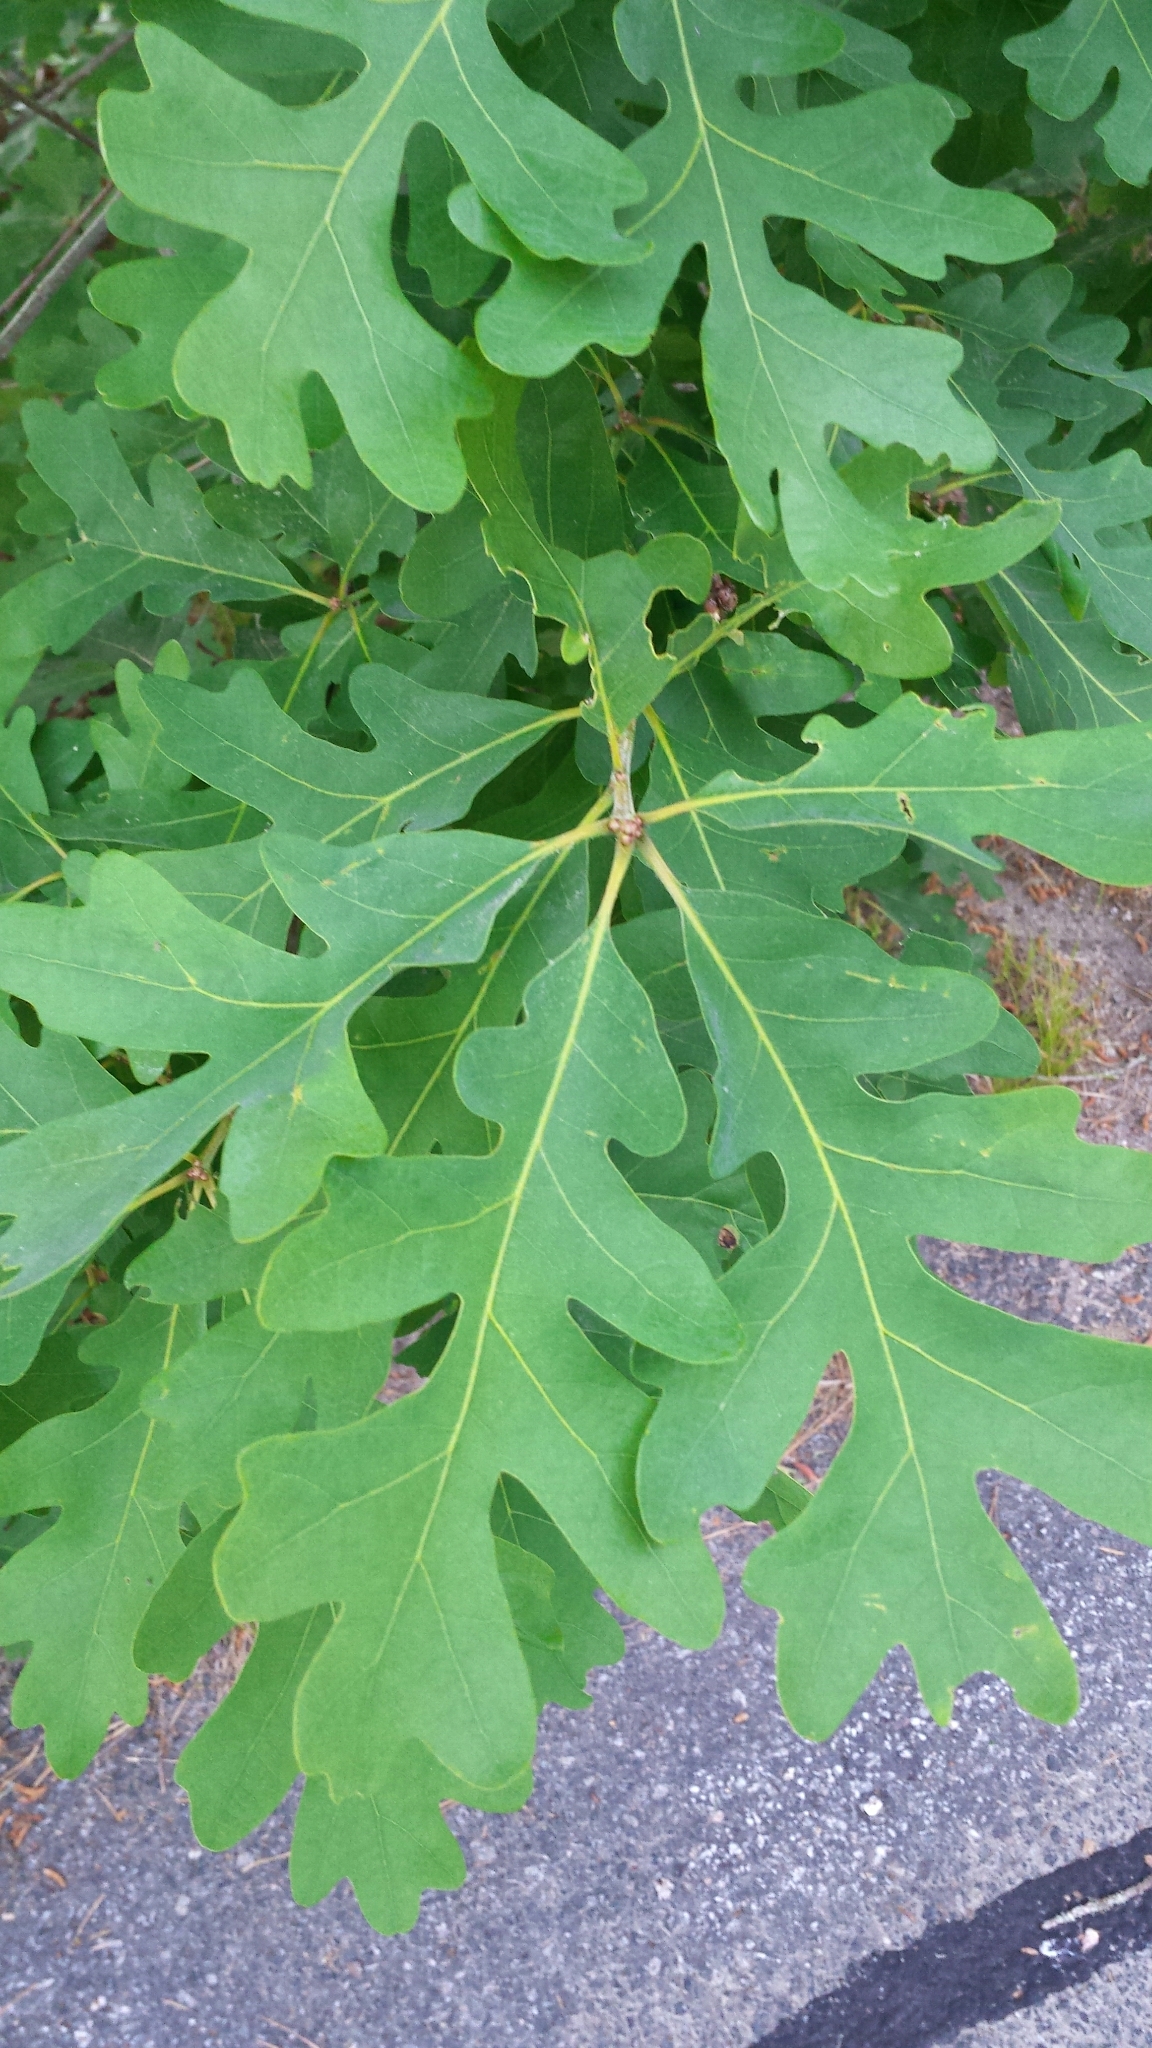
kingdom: Plantae
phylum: Tracheophyta
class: Magnoliopsida
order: Fagales
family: Fagaceae
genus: Quercus
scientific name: Quercus alba
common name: White oak
